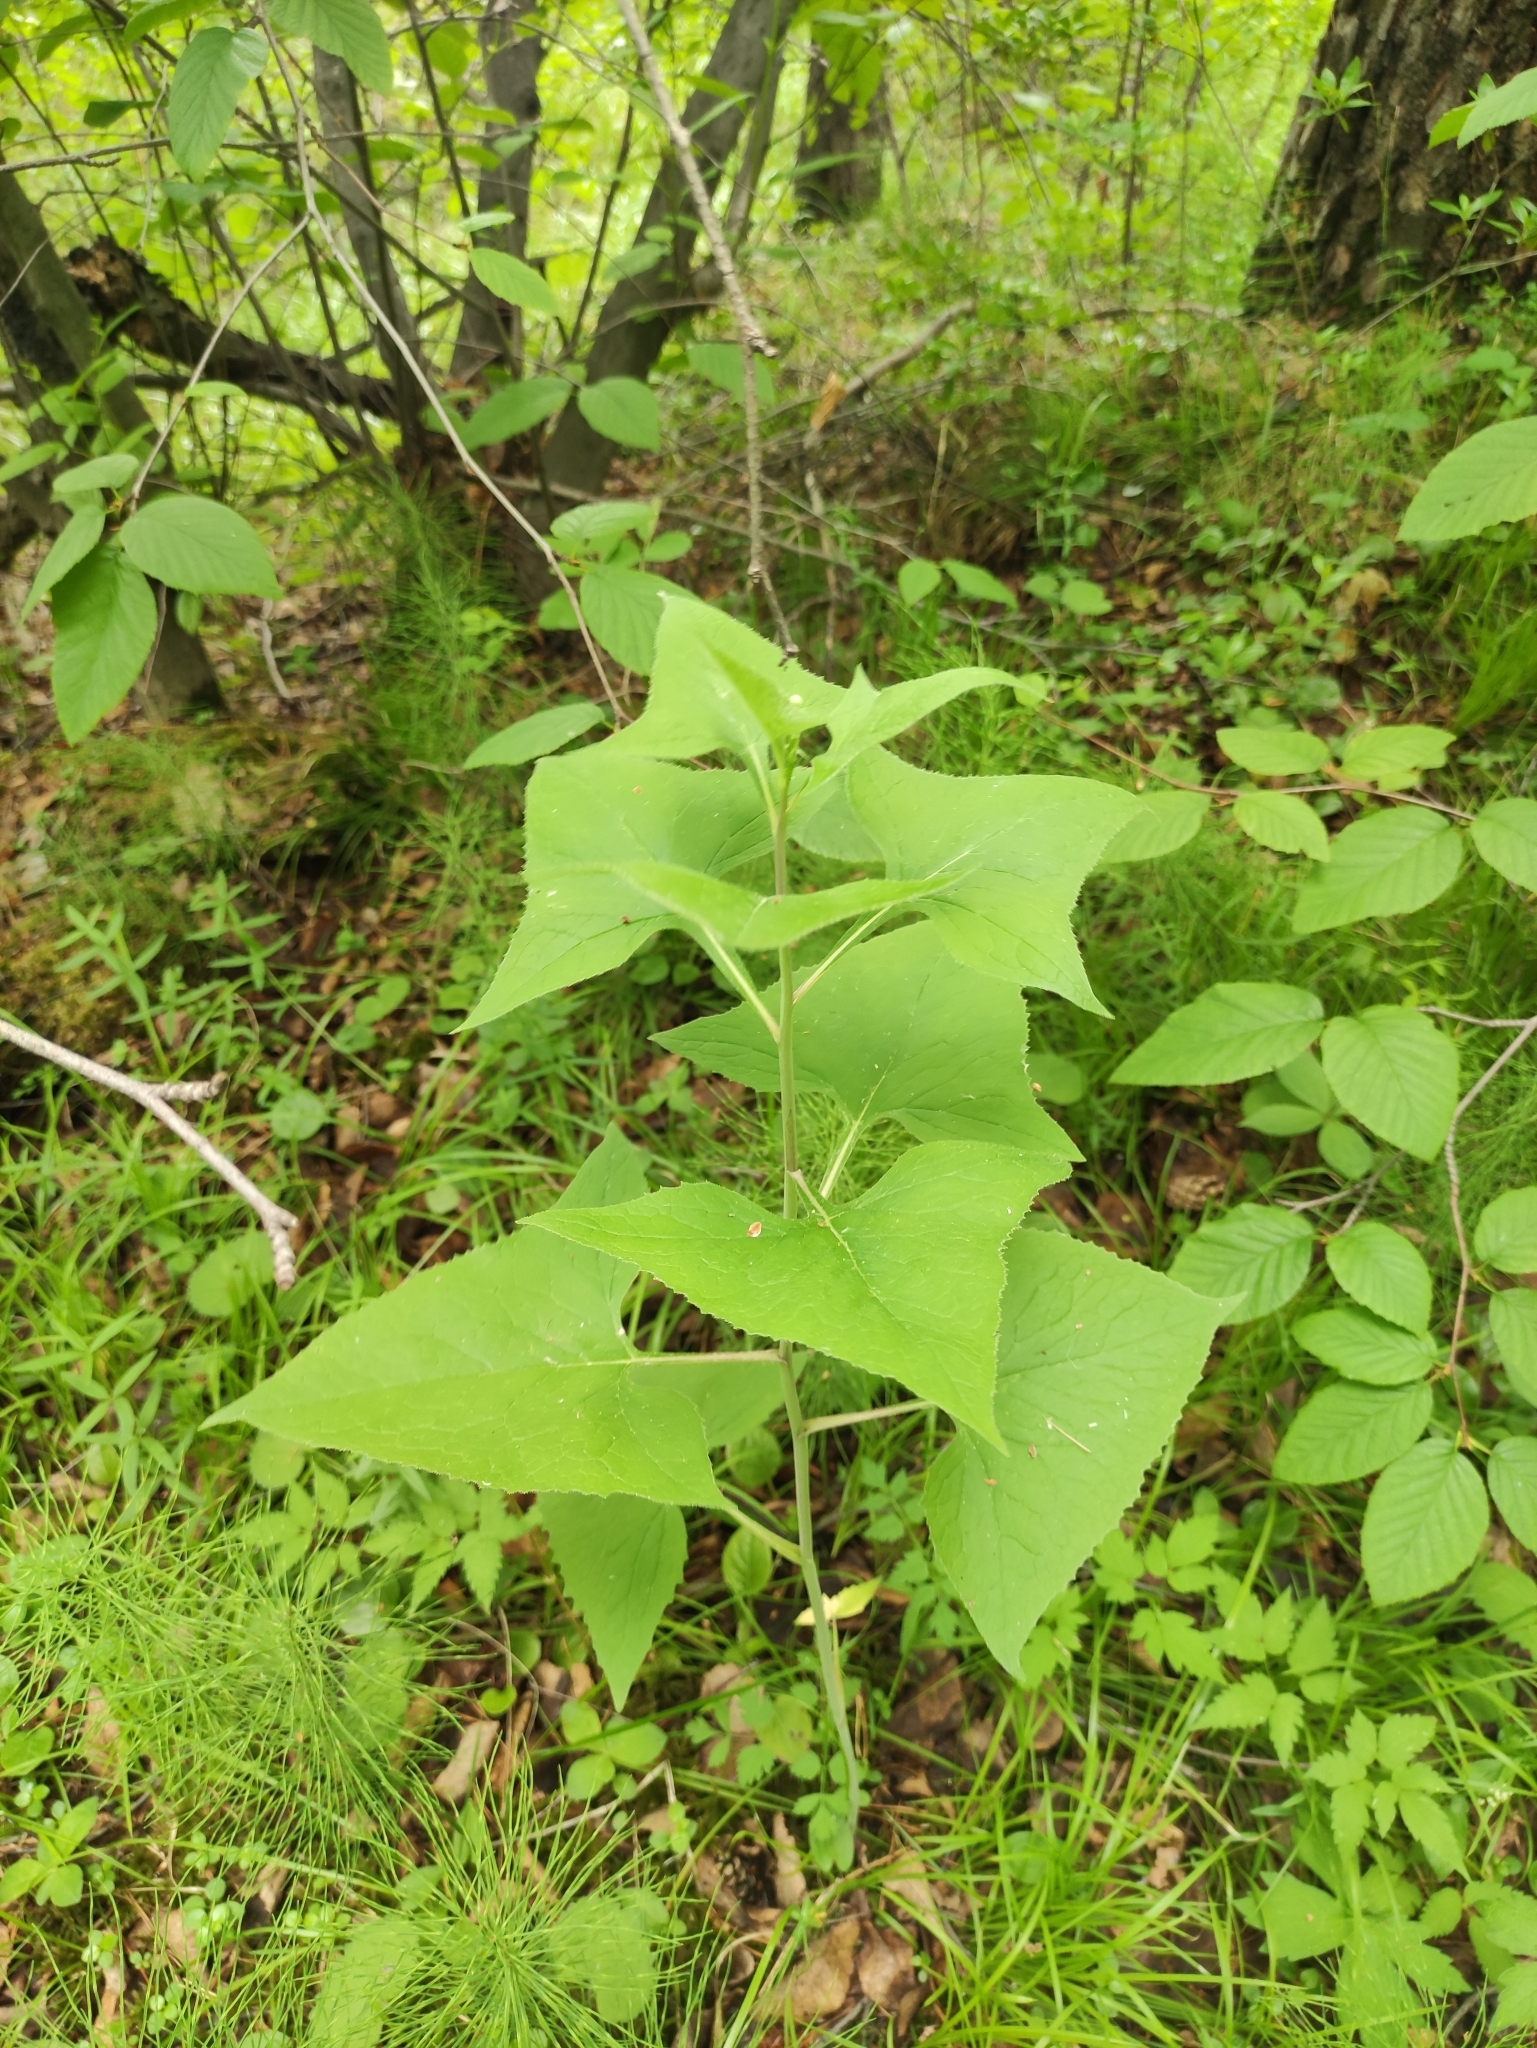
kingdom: Plantae
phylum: Tracheophyta
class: Magnoliopsida
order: Asterales
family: Asteraceae
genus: Parasenecio
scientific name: Parasenecio hastatus
